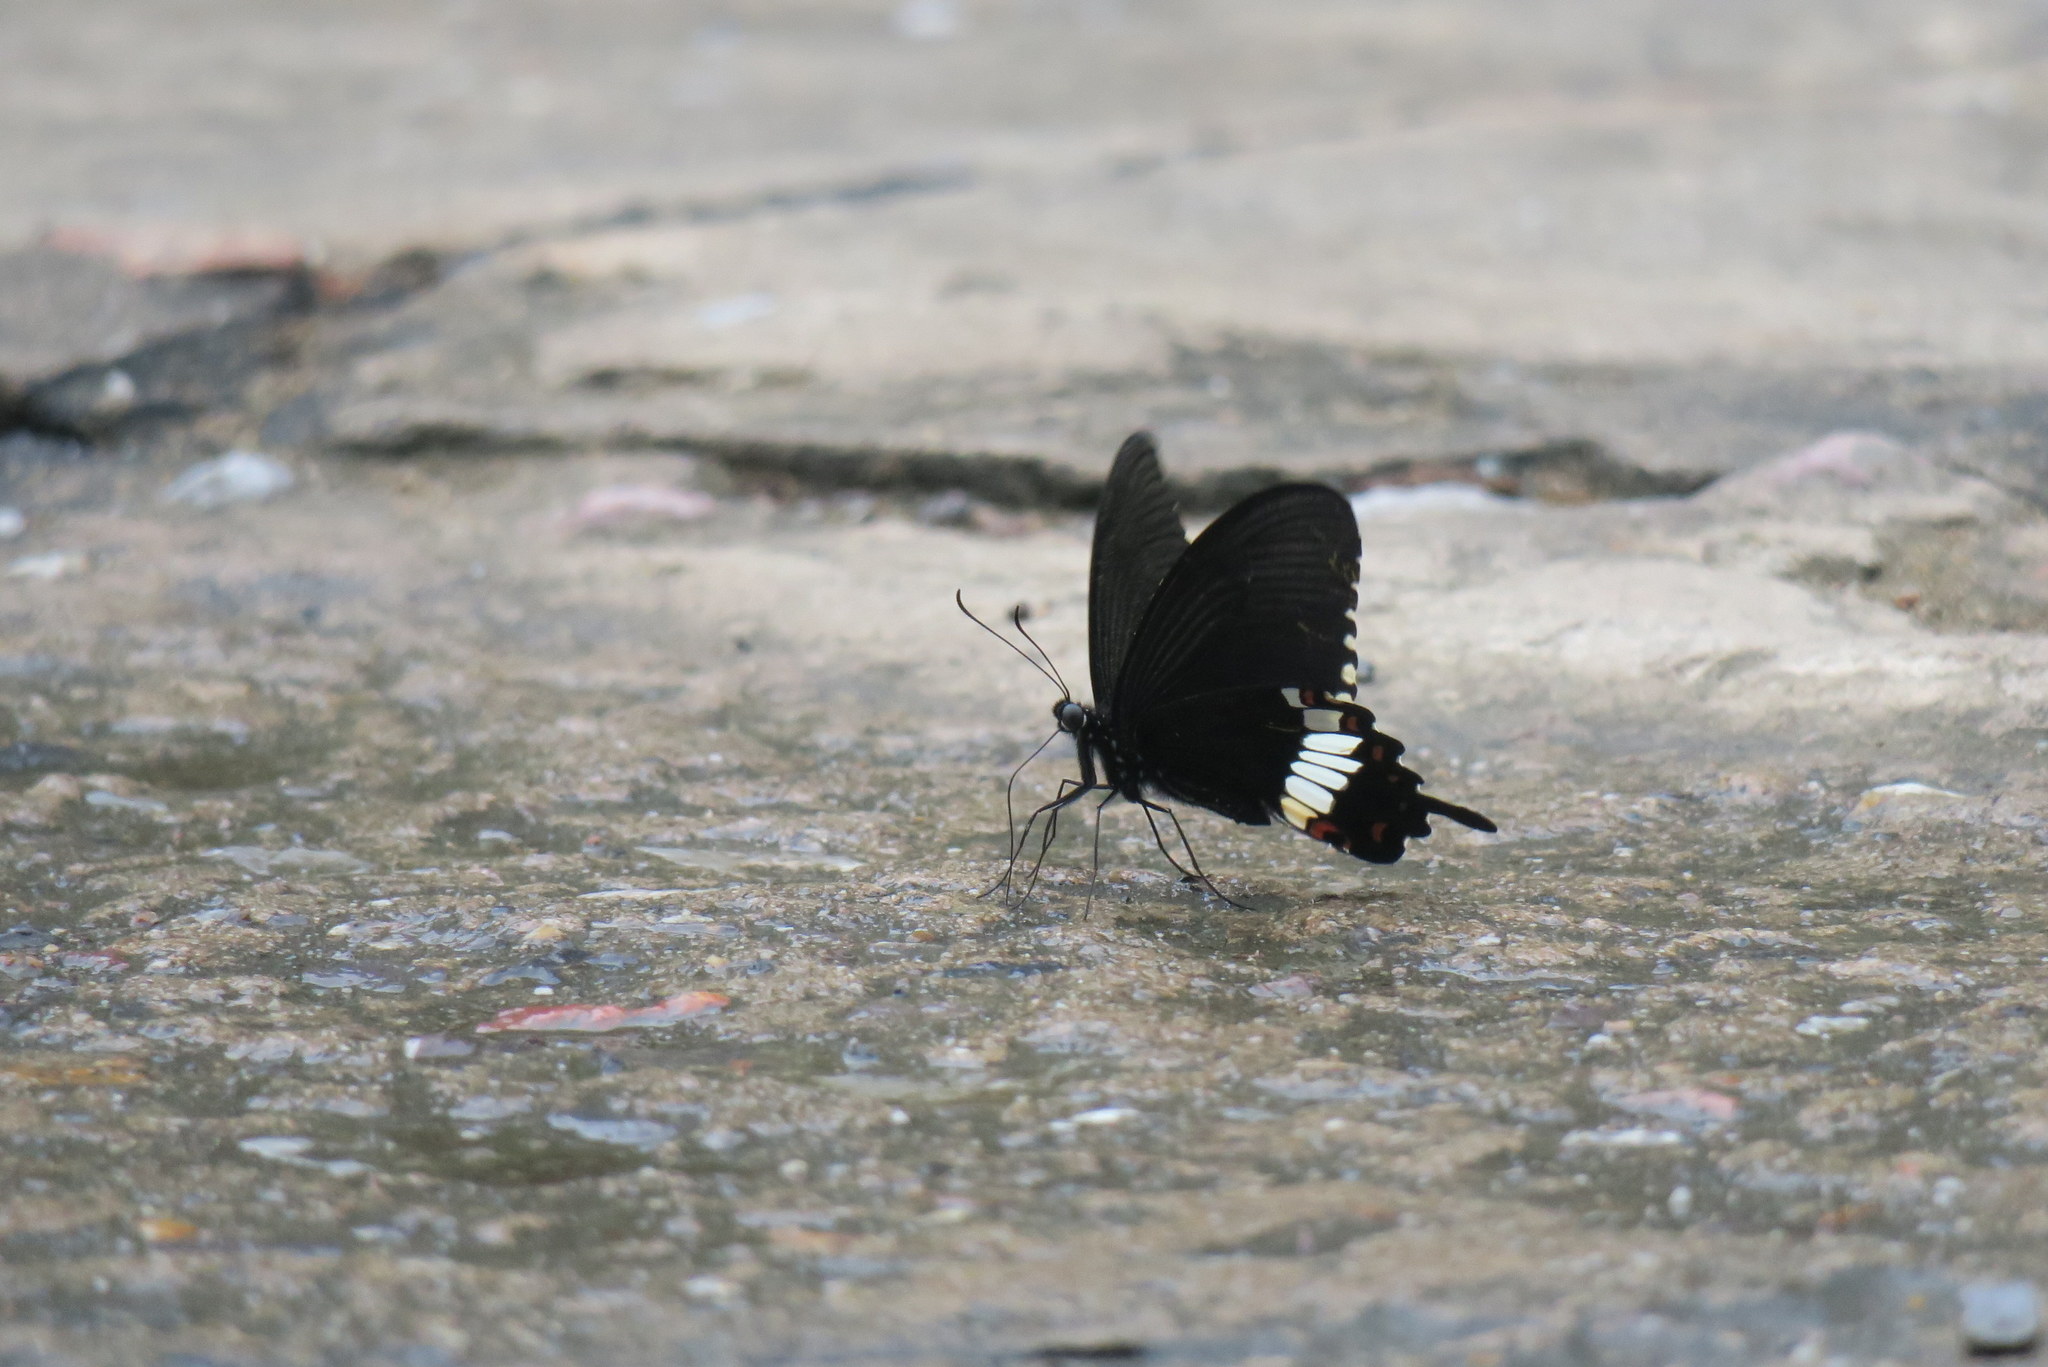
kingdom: Animalia
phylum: Arthropoda
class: Insecta
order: Lepidoptera
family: Papilionidae
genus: Papilio
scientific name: Papilio polytes
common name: Common mormon
